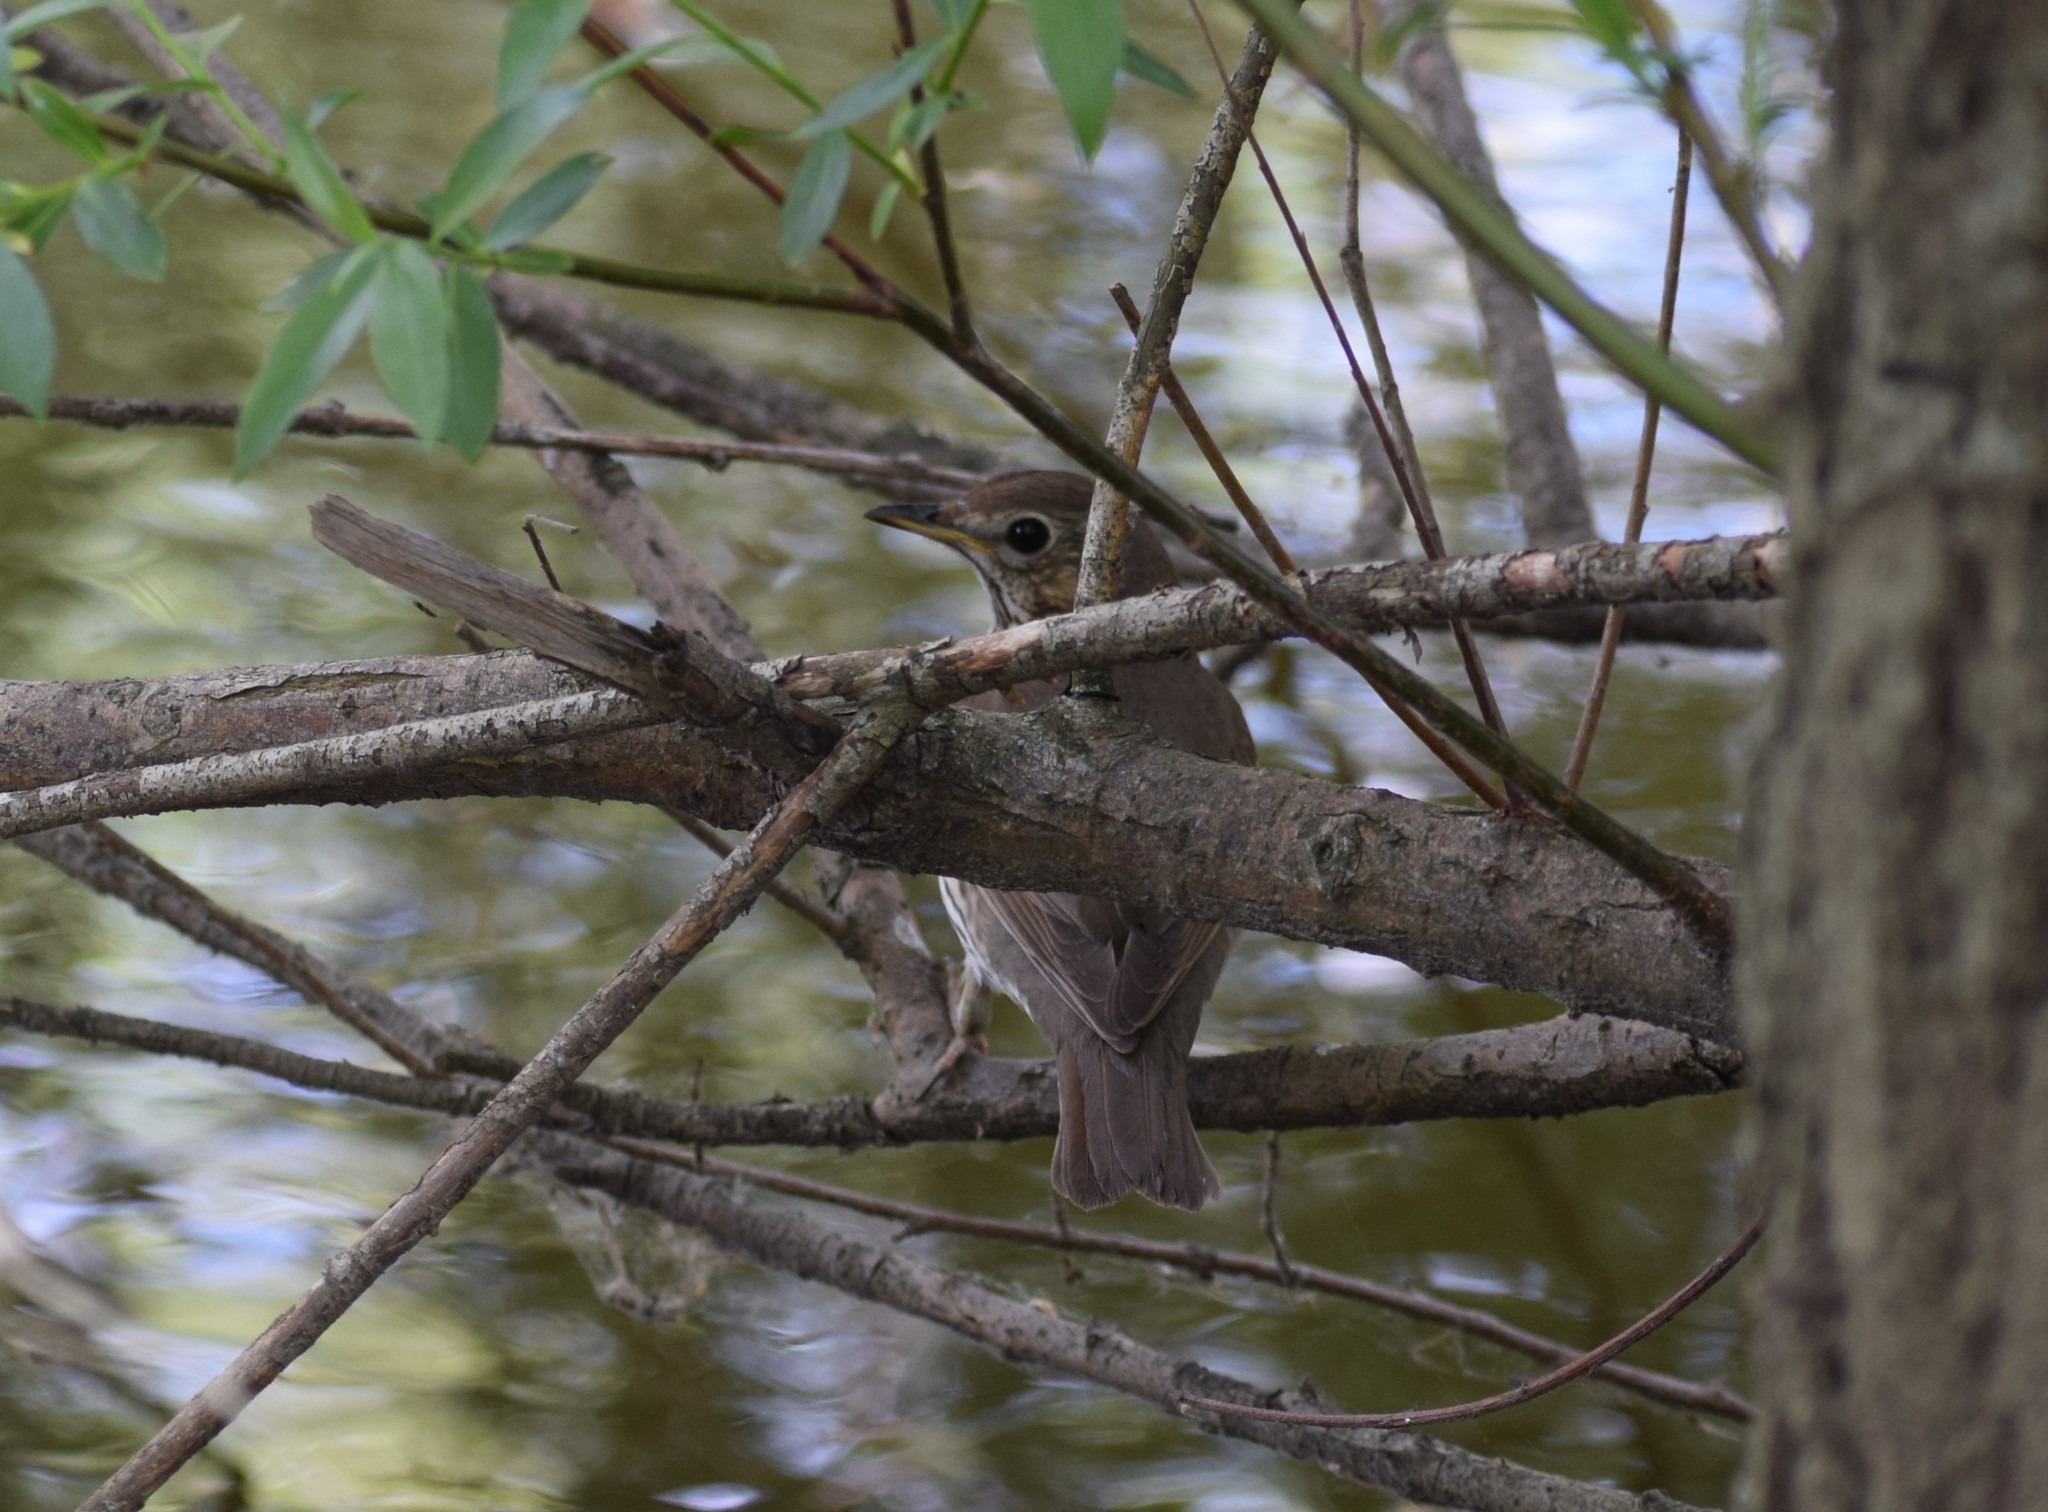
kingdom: Animalia
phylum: Chordata
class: Aves
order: Passeriformes
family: Turdidae
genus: Turdus
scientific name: Turdus philomelos
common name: Song thrush
